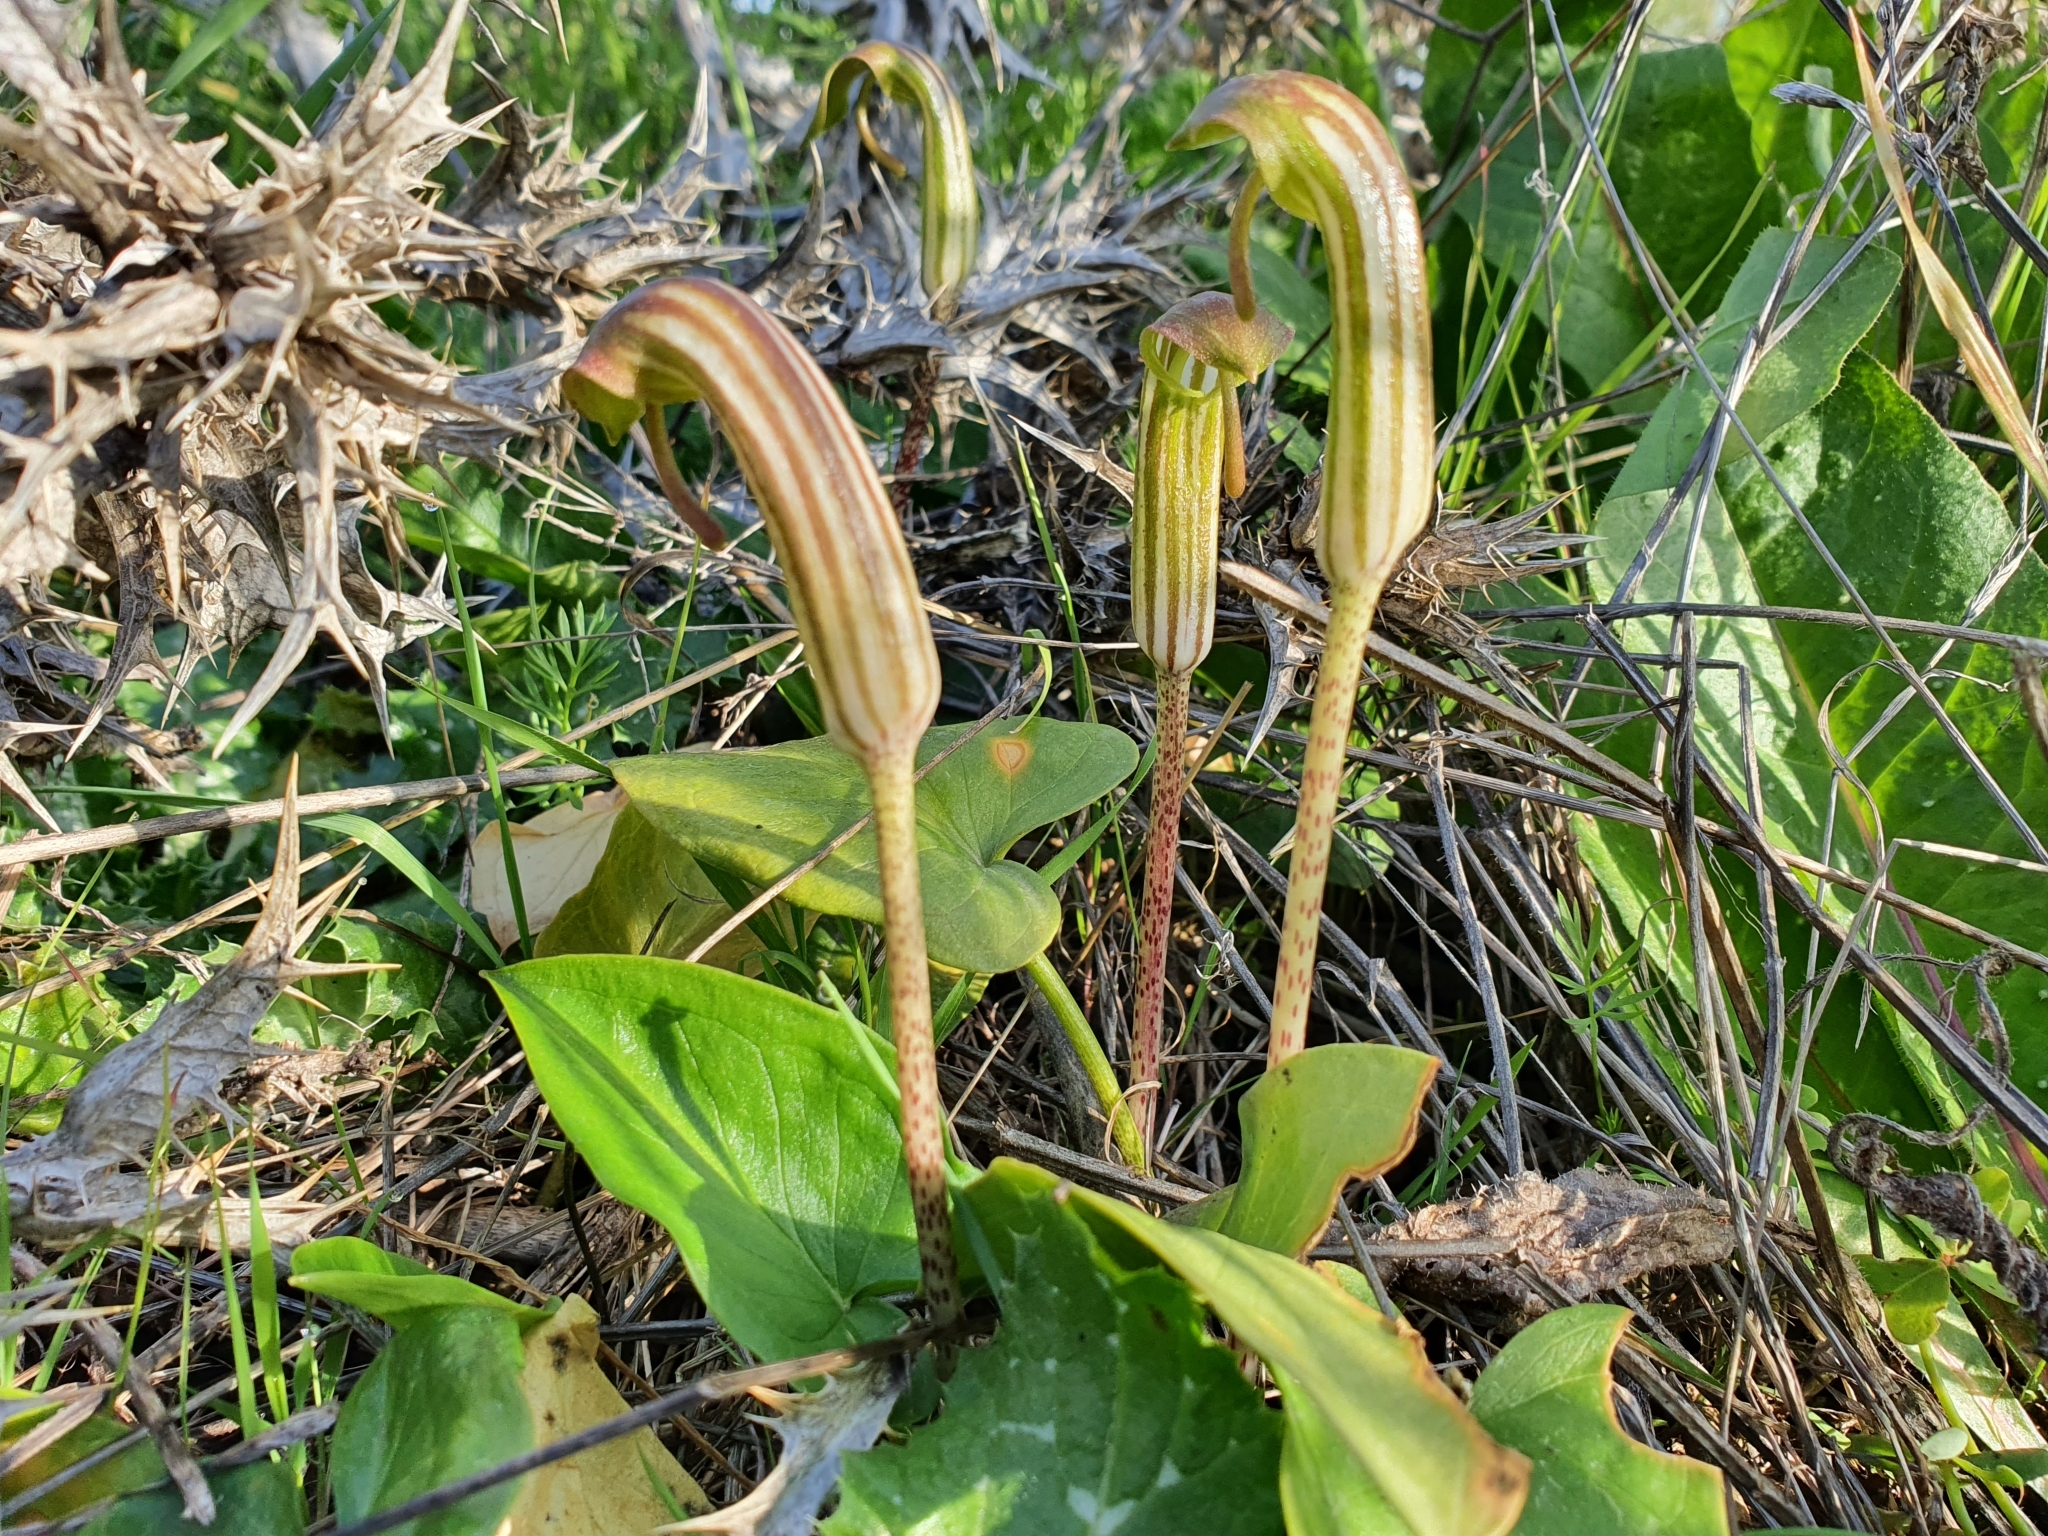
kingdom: Plantae
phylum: Tracheophyta
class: Liliopsida
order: Alismatales
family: Araceae
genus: Arisarum
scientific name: Arisarum vulgare
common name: Common arisarum
